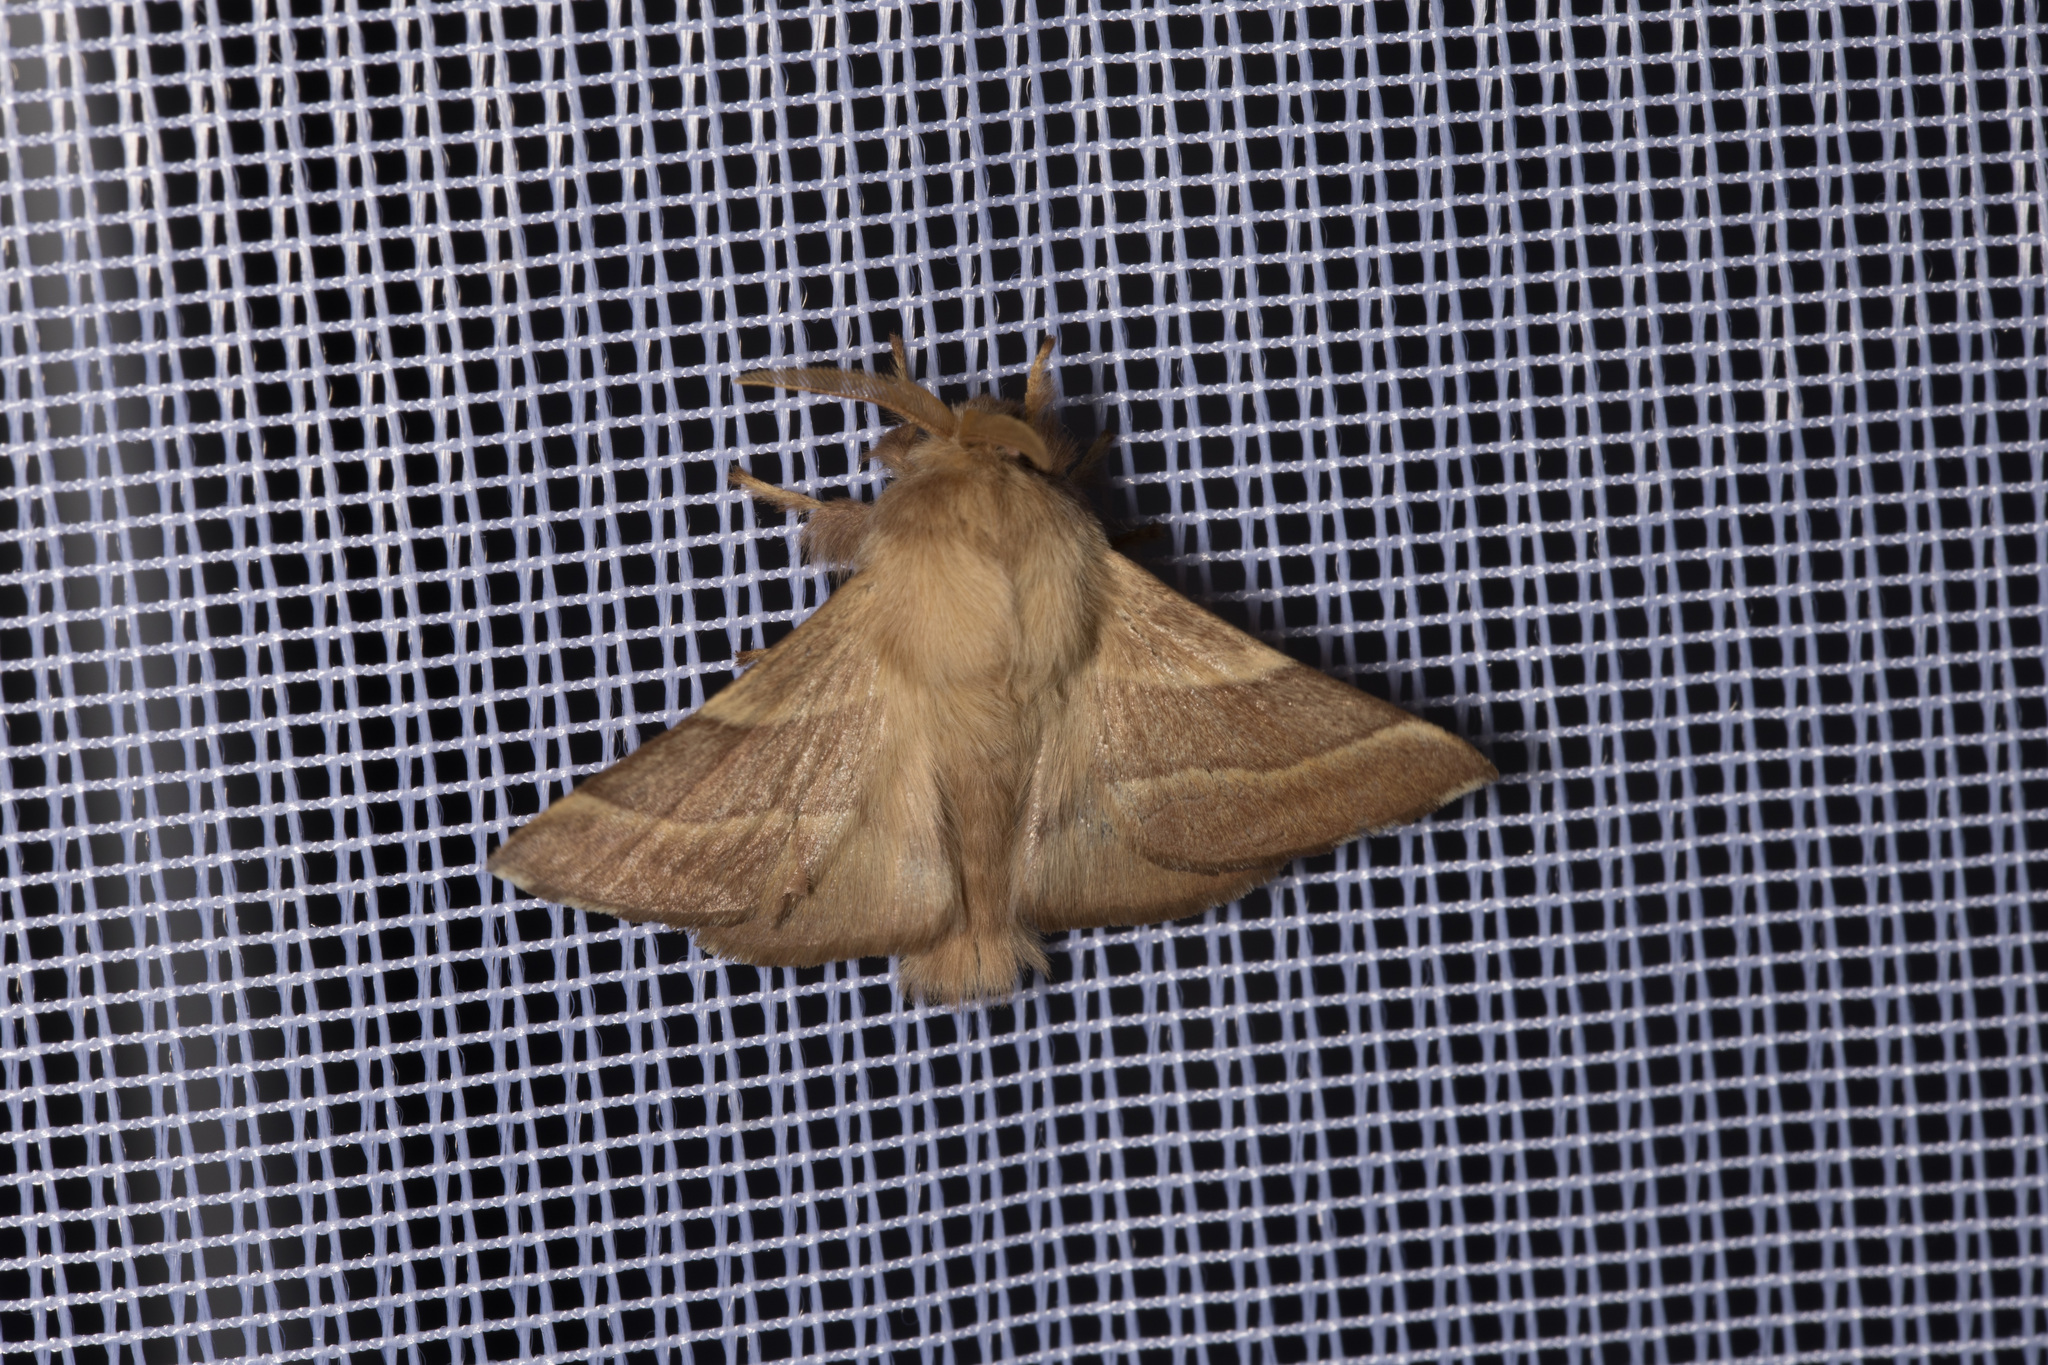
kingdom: Animalia
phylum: Arthropoda
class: Insecta
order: Lepidoptera
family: Lasiocampidae
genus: Malacosoma
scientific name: Malacosoma neustria
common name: The lackey
